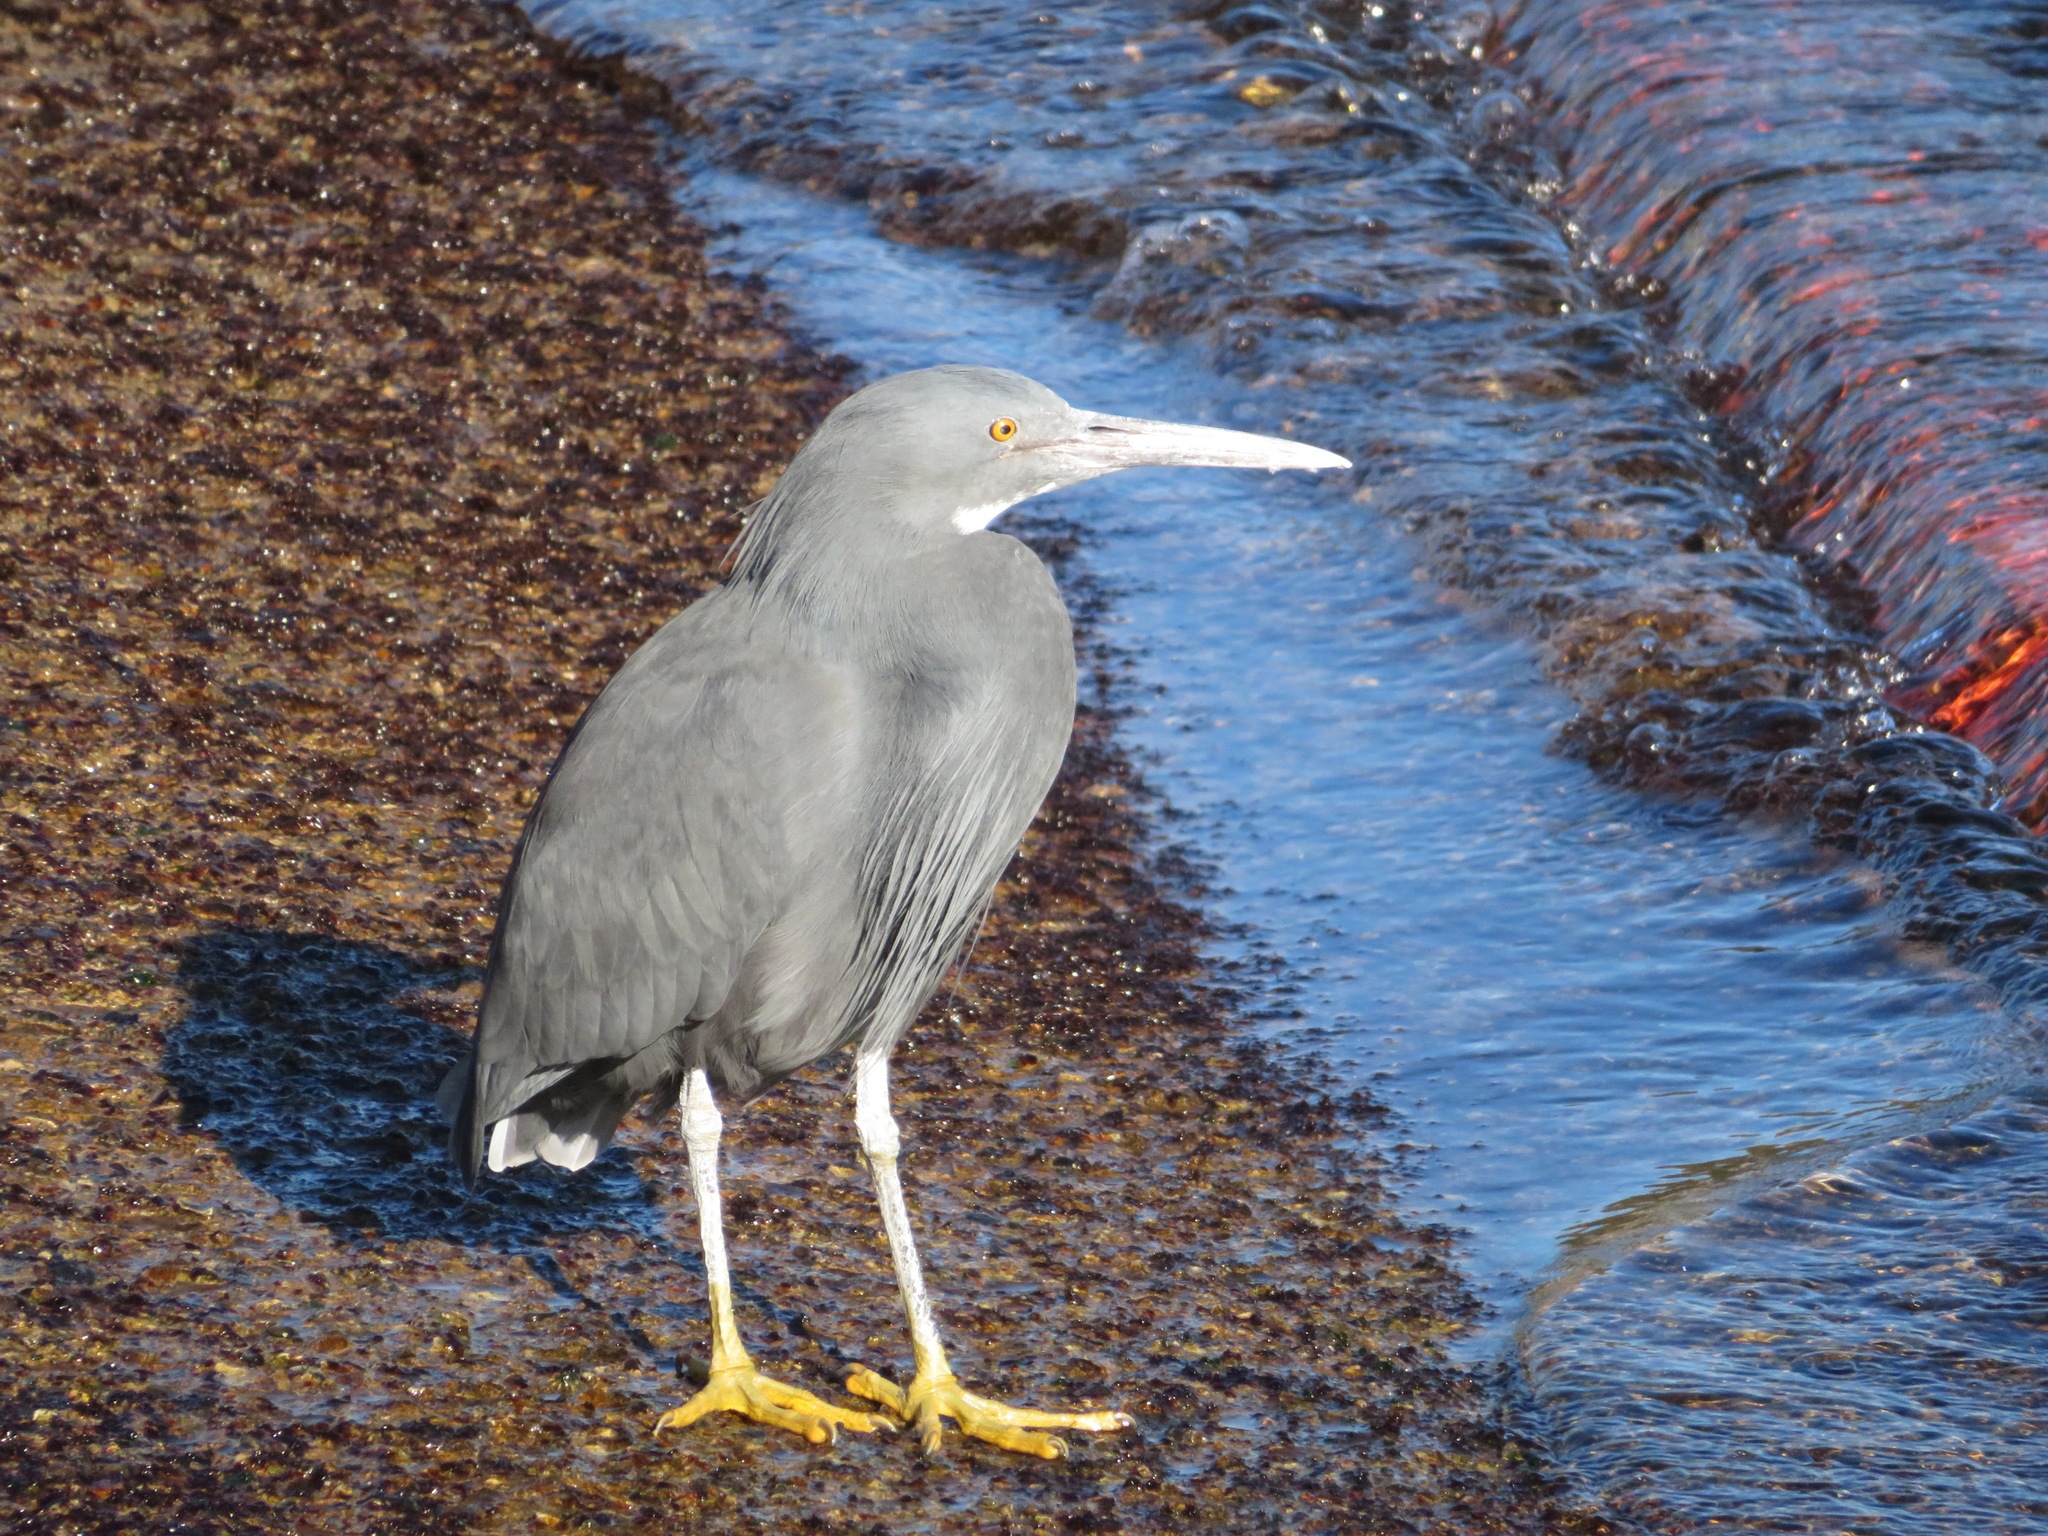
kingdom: Animalia
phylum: Chordata
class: Aves
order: Pelecaniformes
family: Ardeidae
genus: Egretta
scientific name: Egretta sacra
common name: Pacific reef heron
